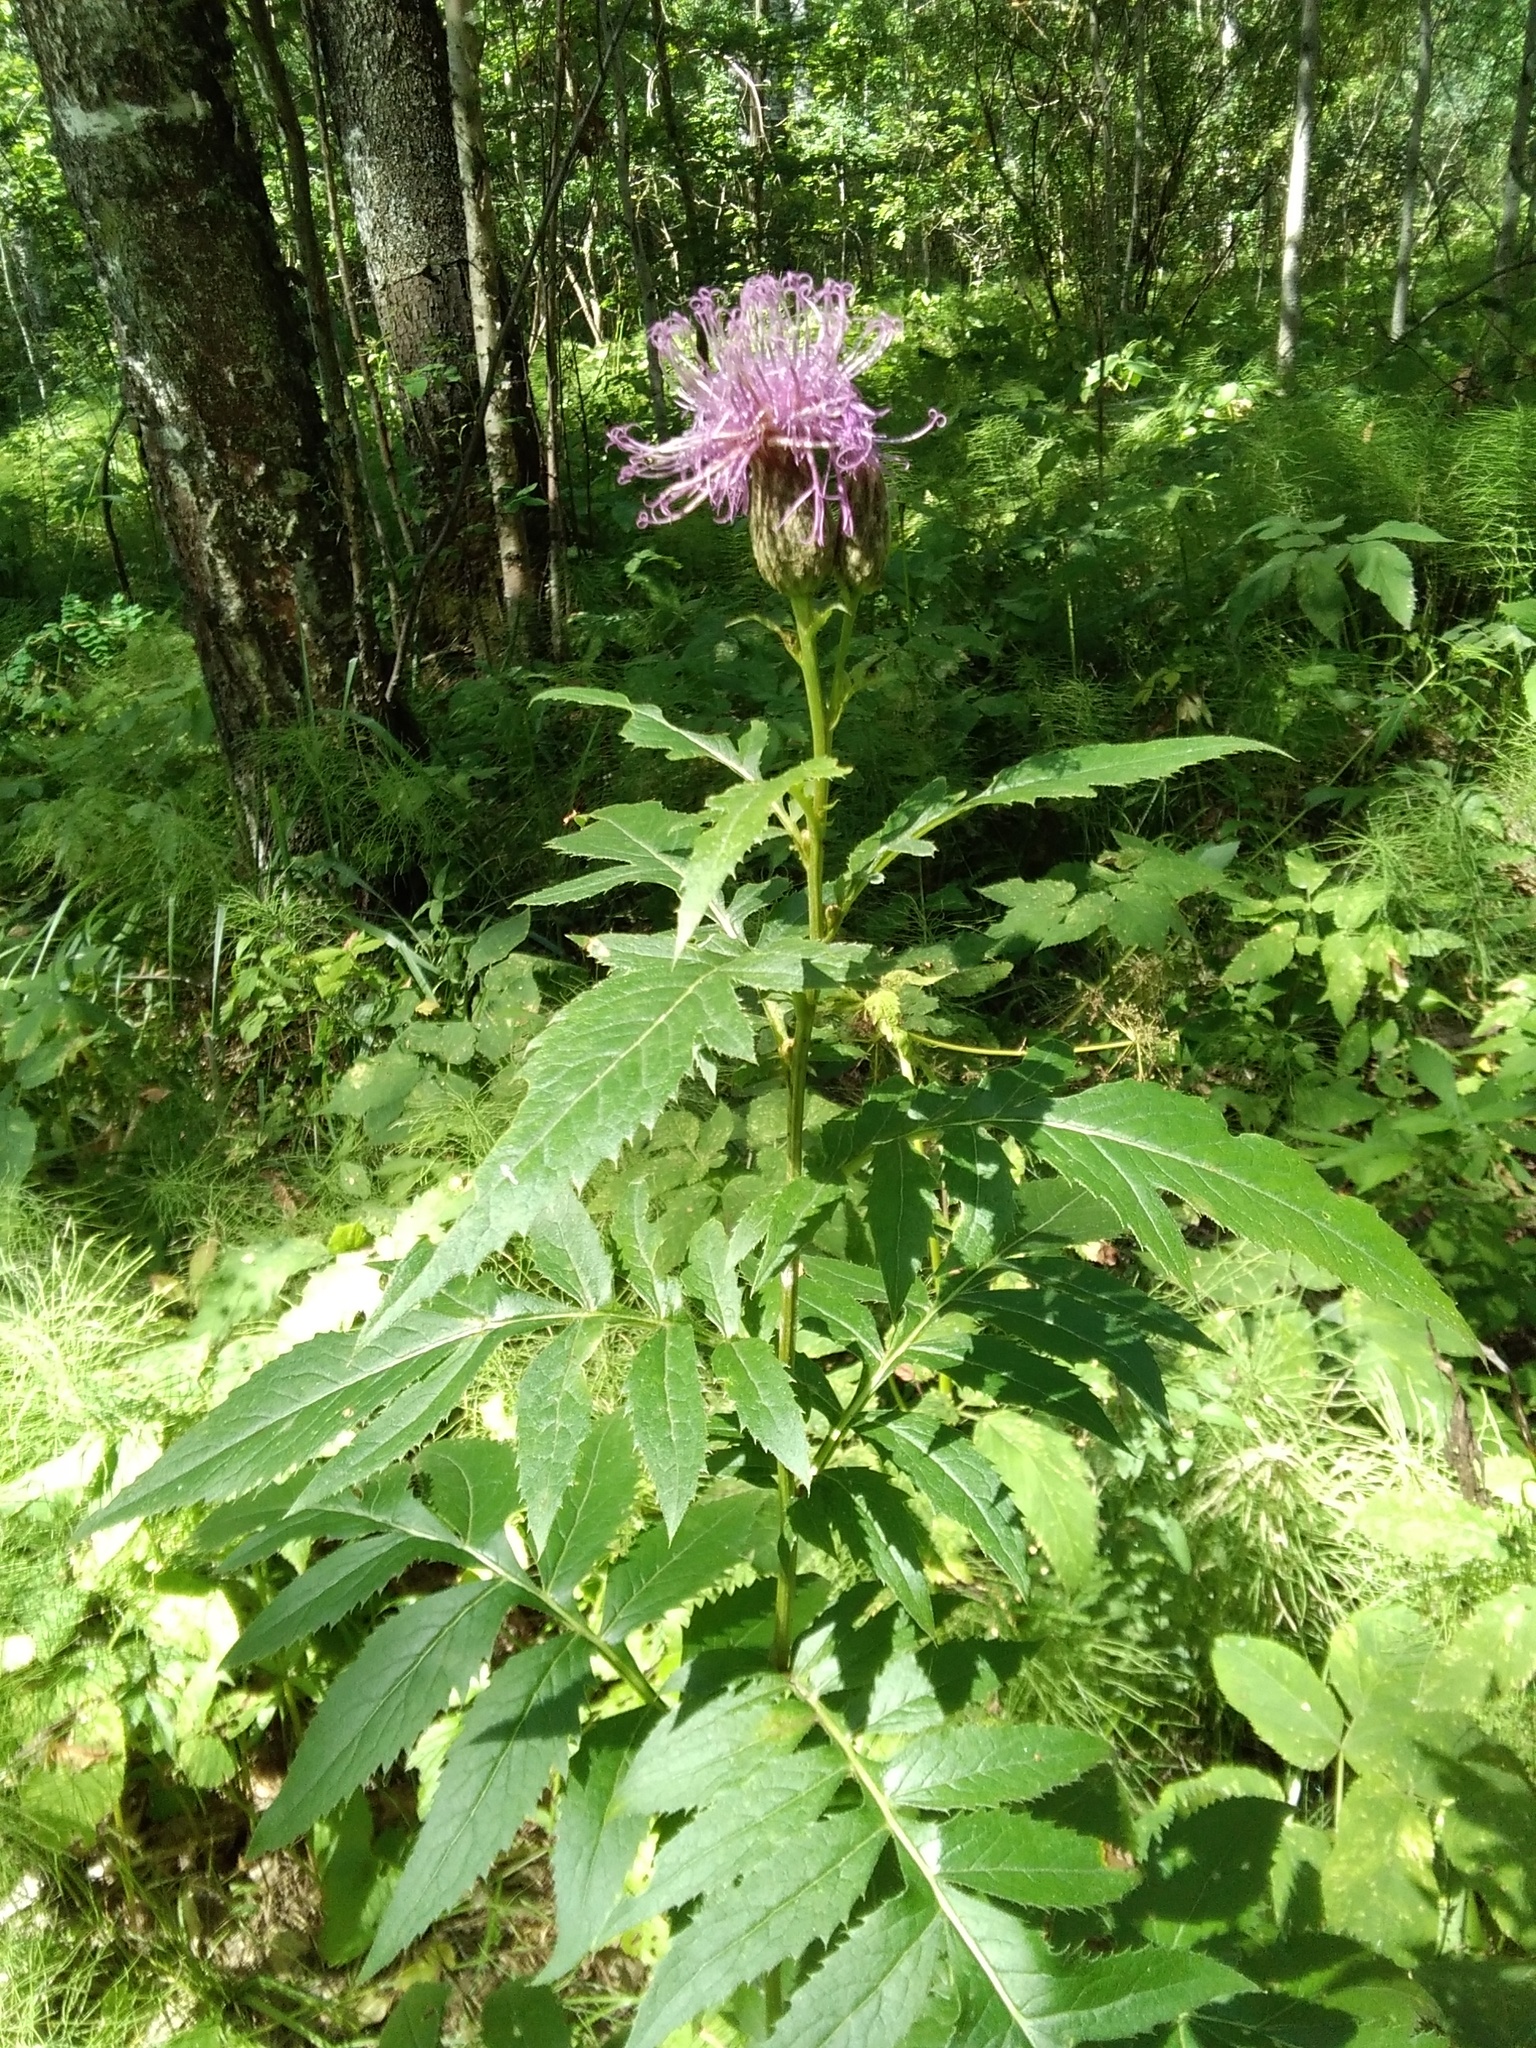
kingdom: Plantae
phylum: Tracheophyta
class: Magnoliopsida
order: Asterales
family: Asteraceae
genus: Serratula
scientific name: Serratula coronata
